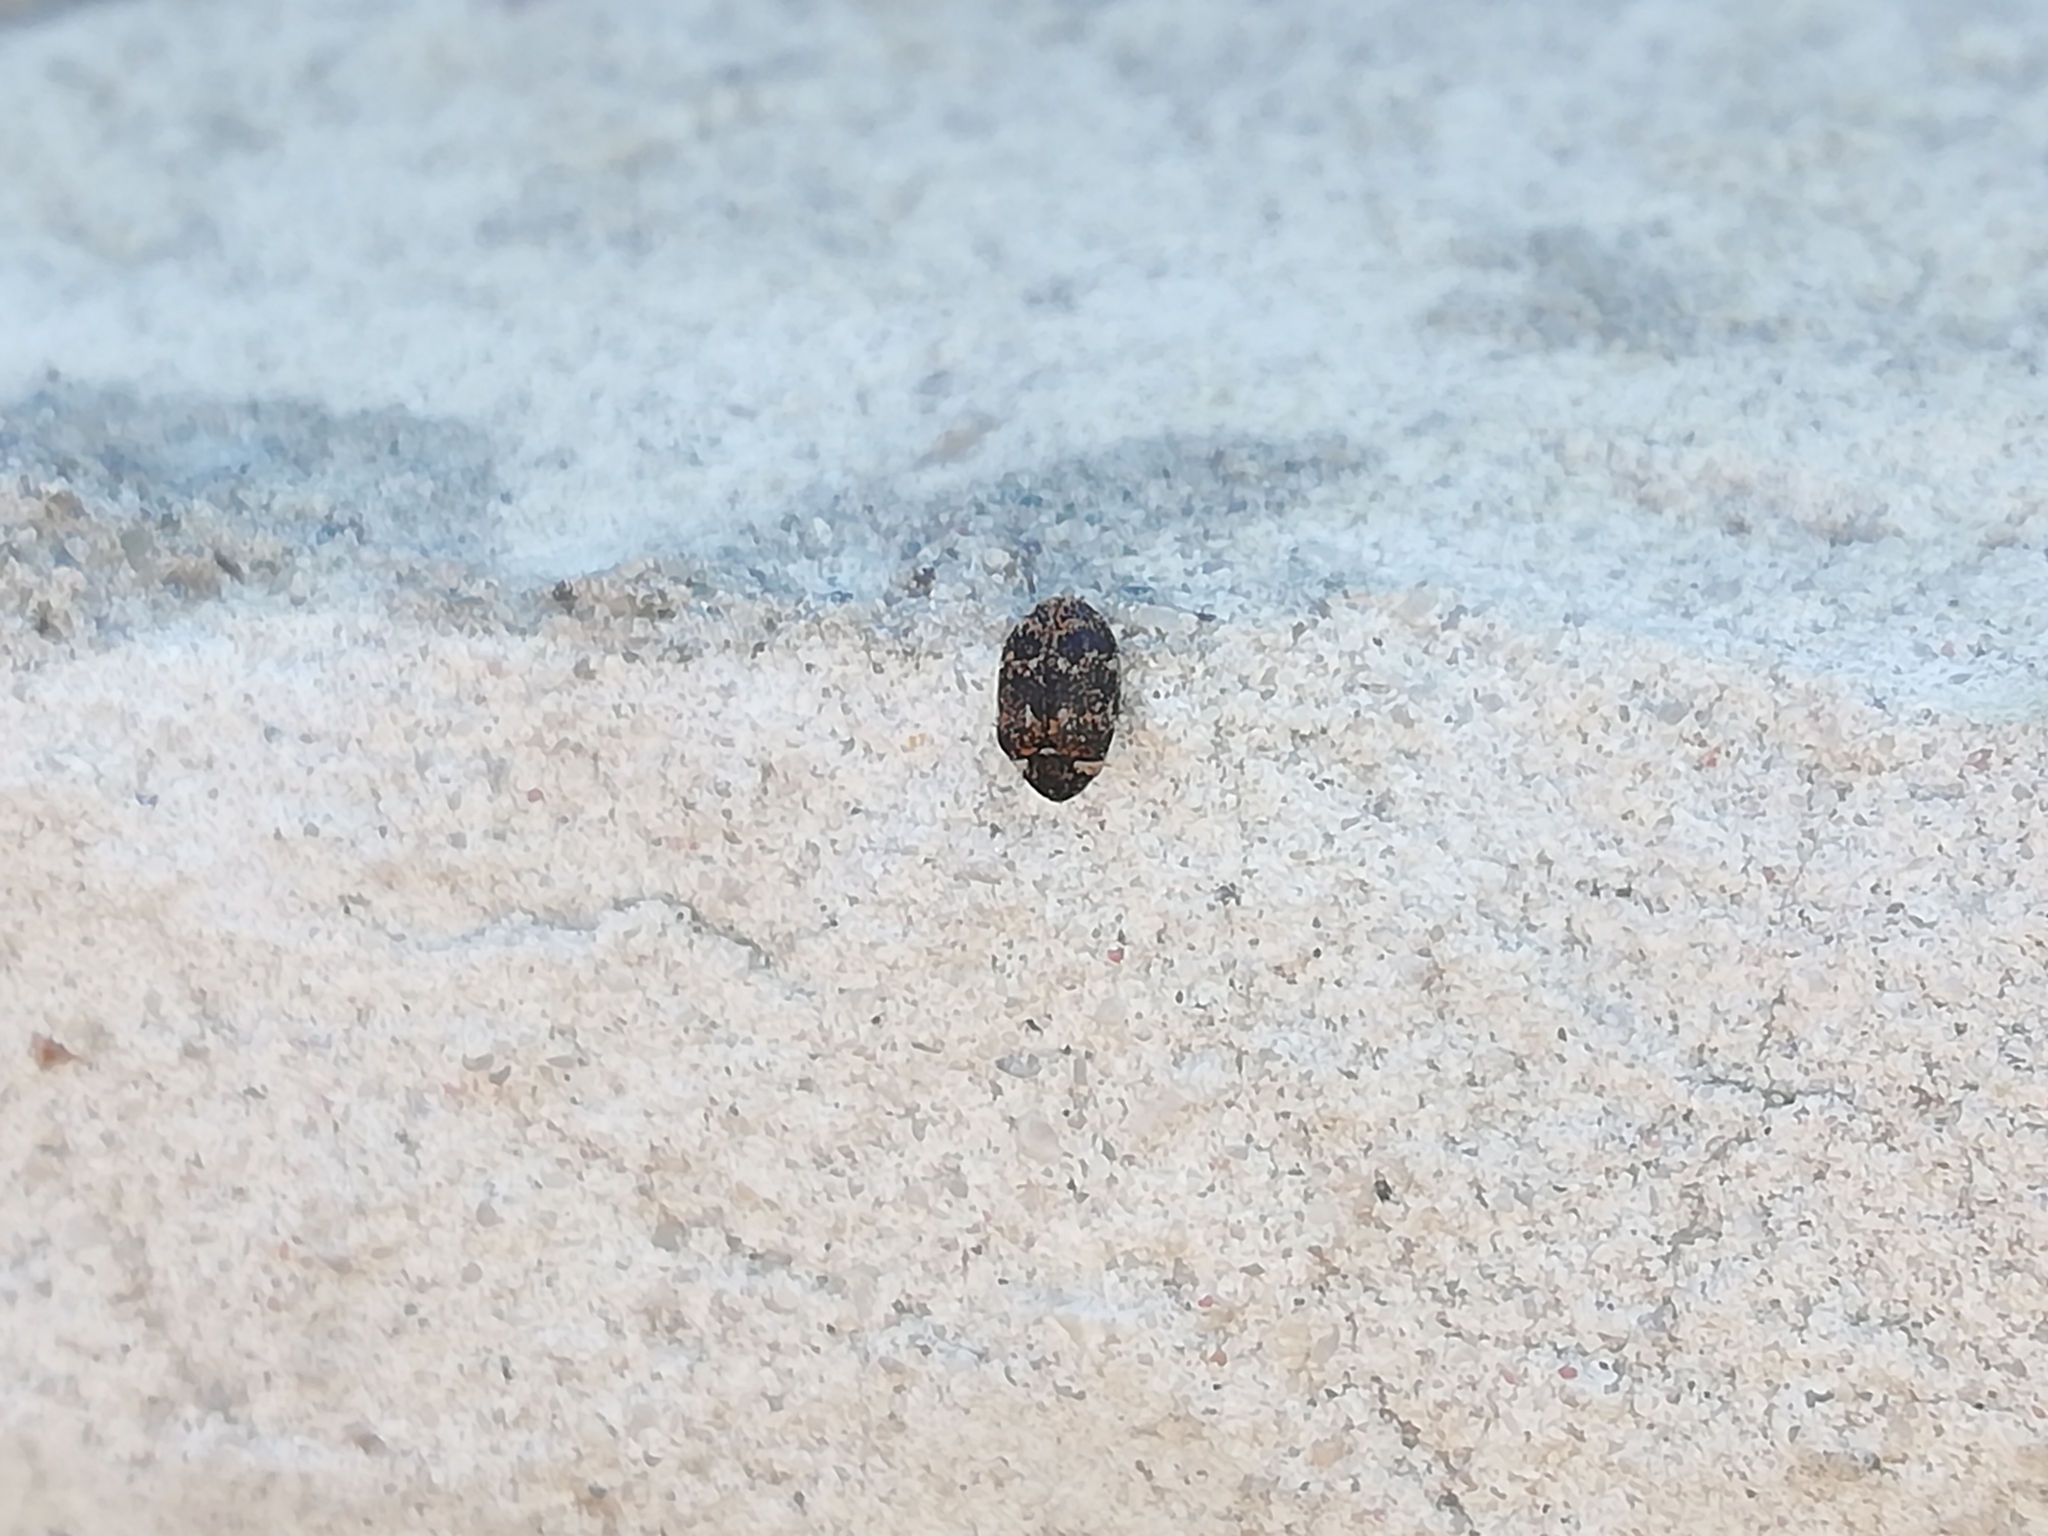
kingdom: Animalia
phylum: Arthropoda
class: Insecta
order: Coleoptera
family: Dermestidae
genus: Anthrenus
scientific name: Anthrenus museorum
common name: Museum beetle
